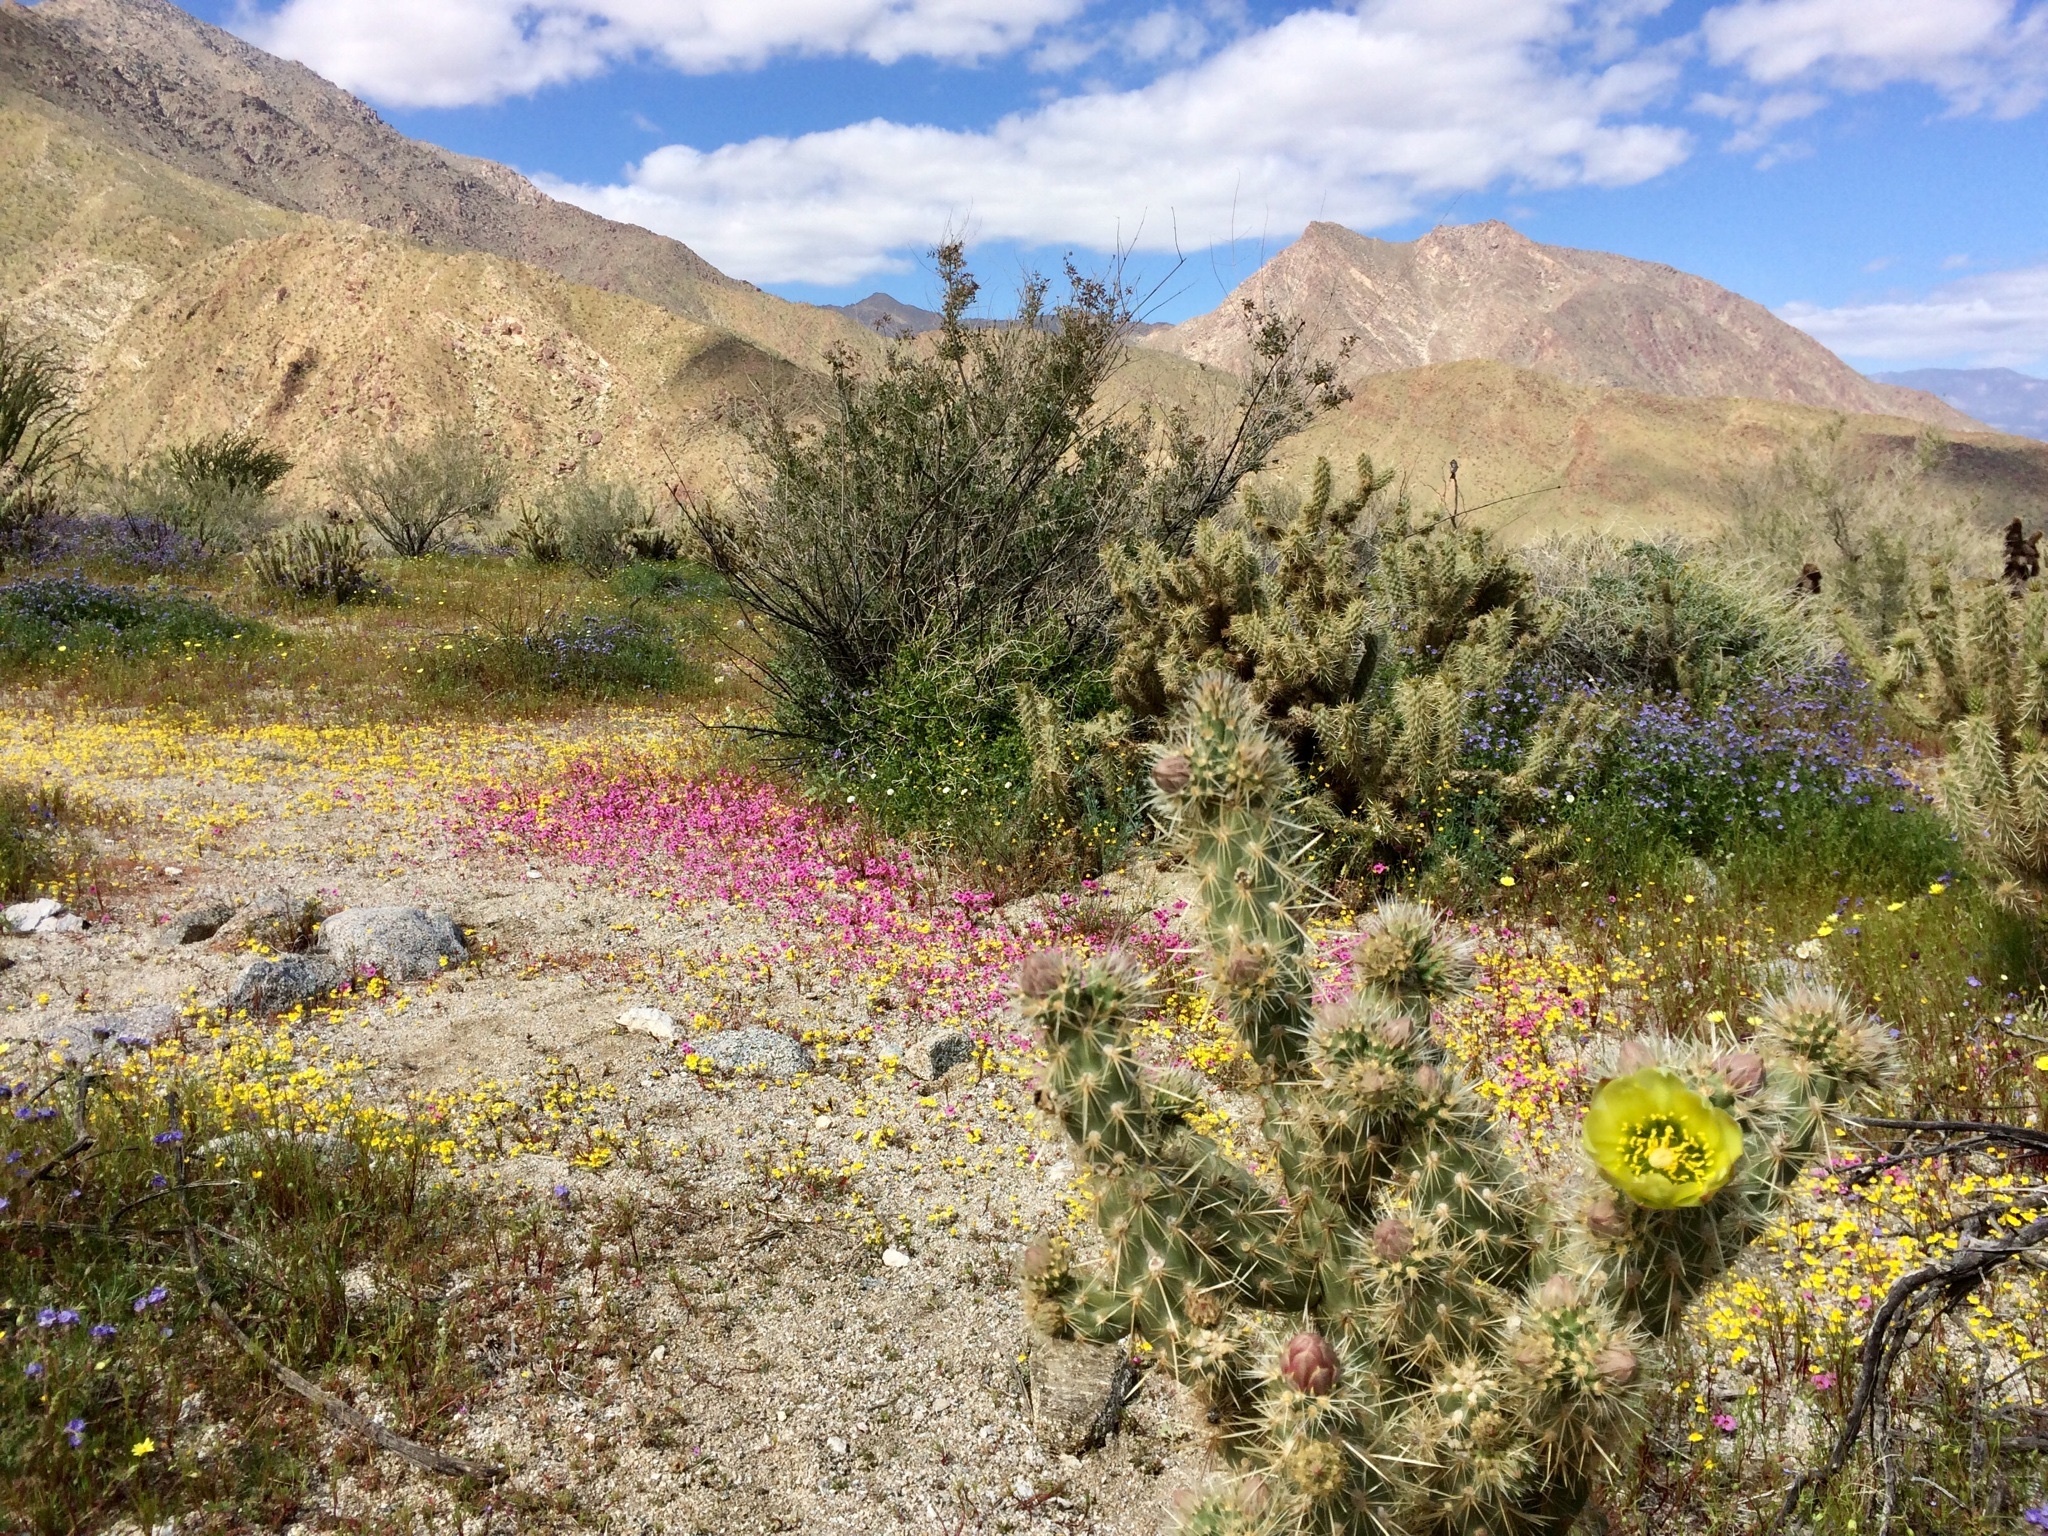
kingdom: Plantae
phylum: Tracheophyta
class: Magnoliopsida
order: Caryophyllales
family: Cactaceae
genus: Cylindropuntia
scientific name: Cylindropuntia ganderi
